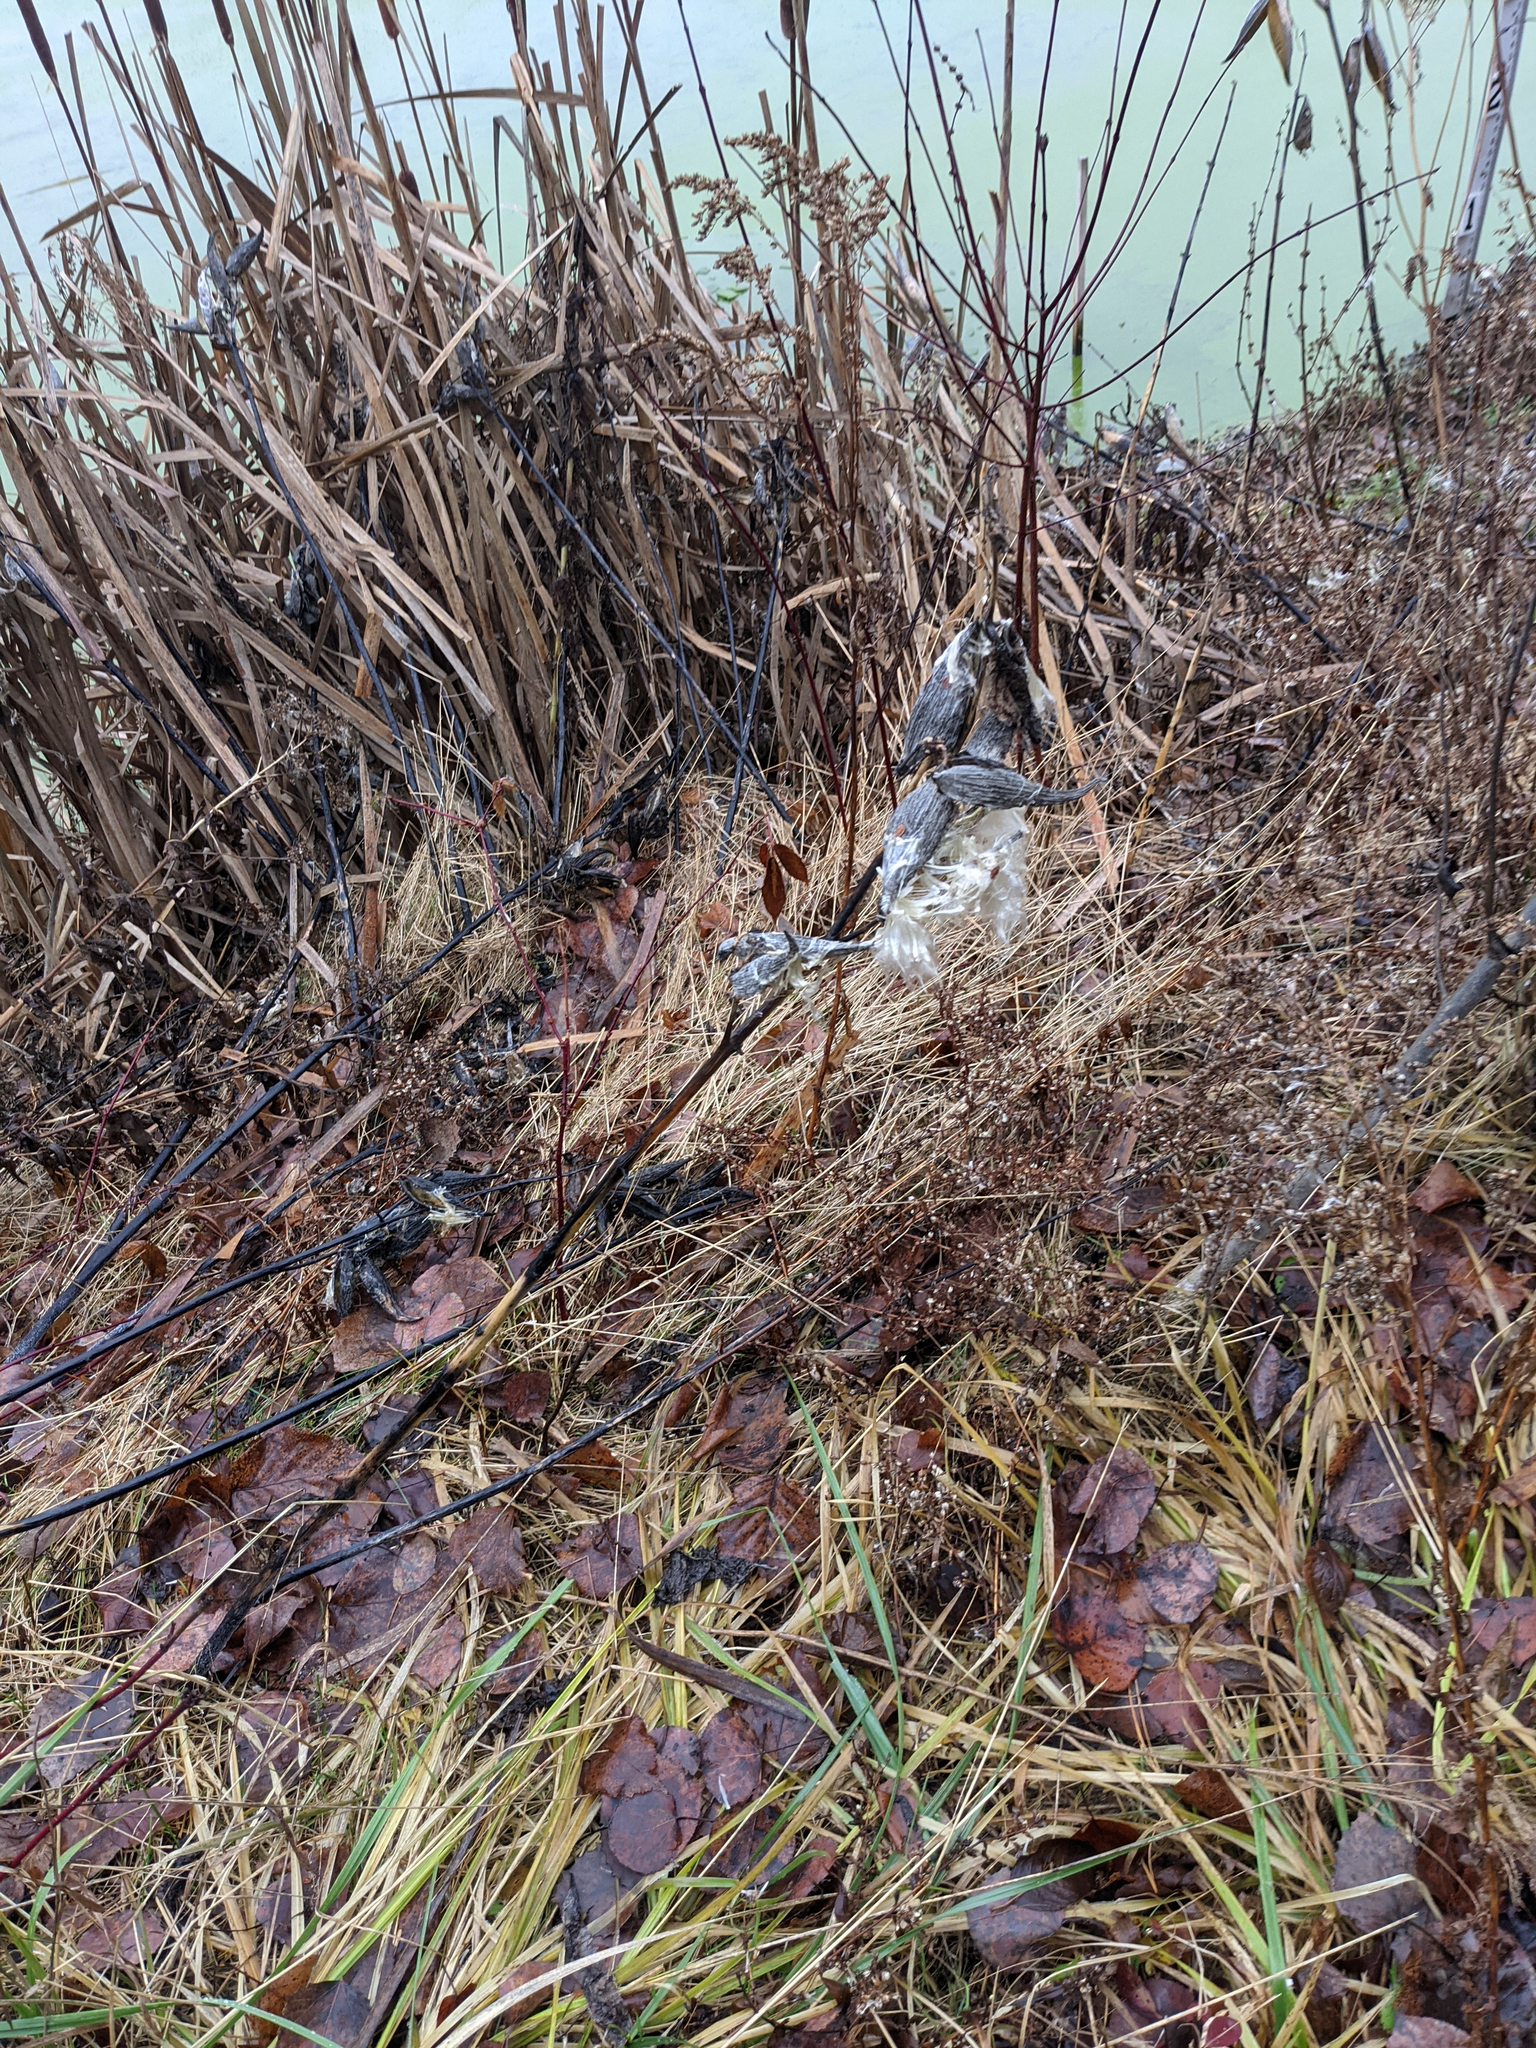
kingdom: Plantae
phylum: Tracheophyta
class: Magnoliopsida
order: Gentianales
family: Apocynaceae
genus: Asclepias
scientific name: Asclepias syriaca
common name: Common milkweed
